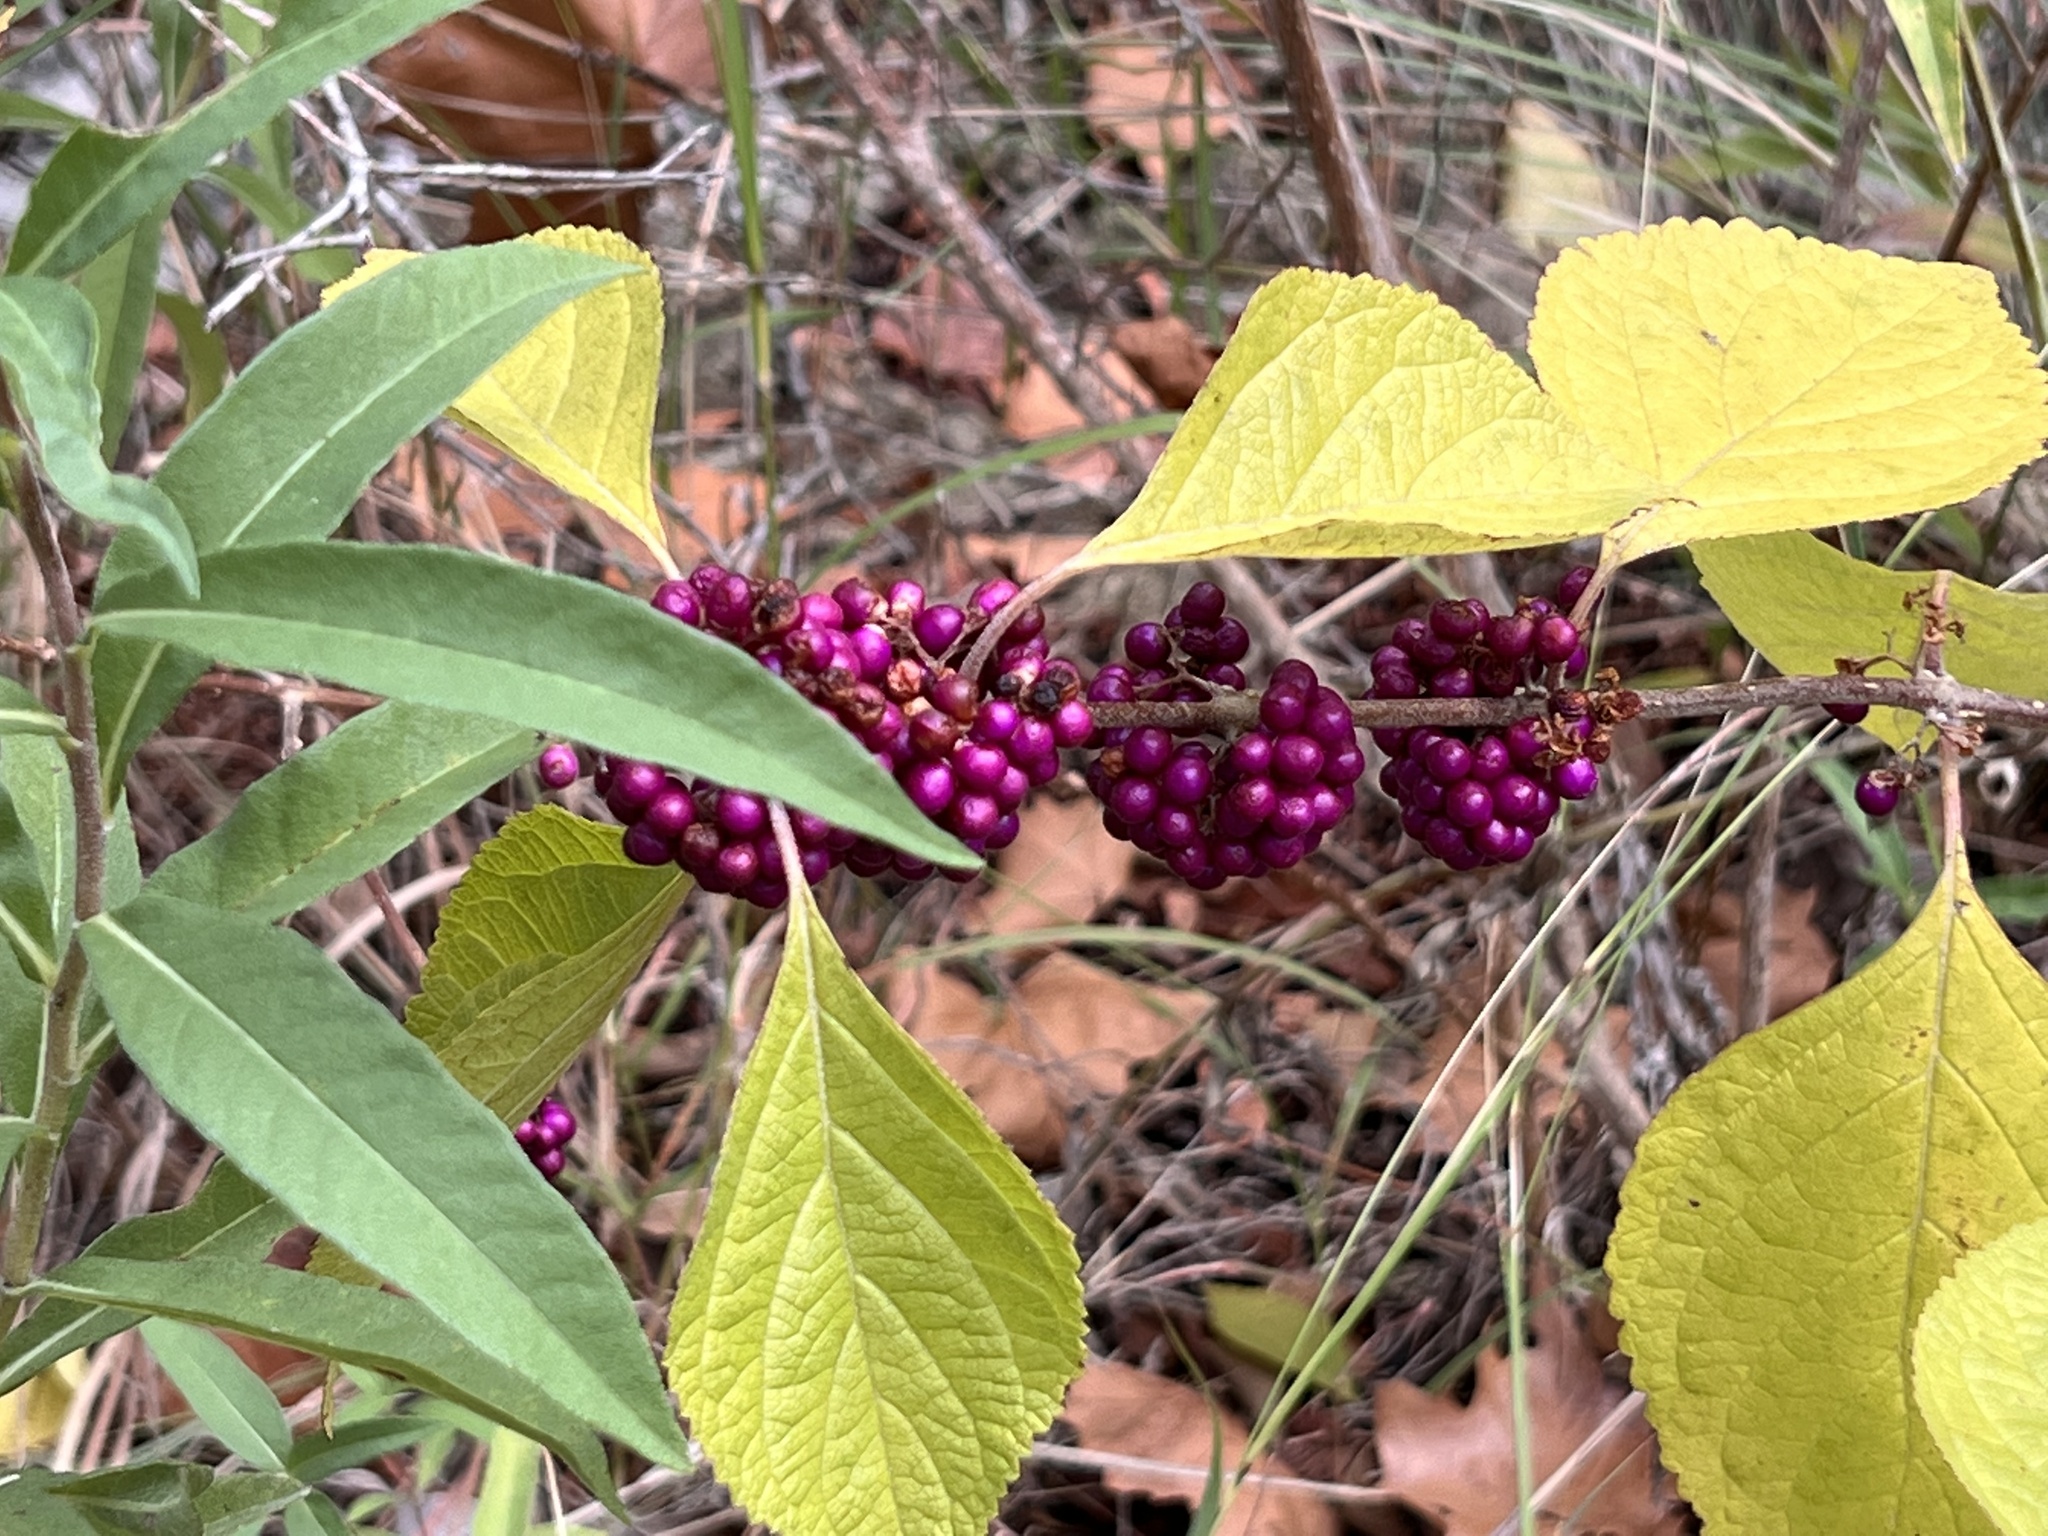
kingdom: Plantae
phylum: Tracheophyta
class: Magnoliopsida
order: Lamiales
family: Lamiaceae
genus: Callicarpa
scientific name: Callicarpa americana
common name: American beautyberry
